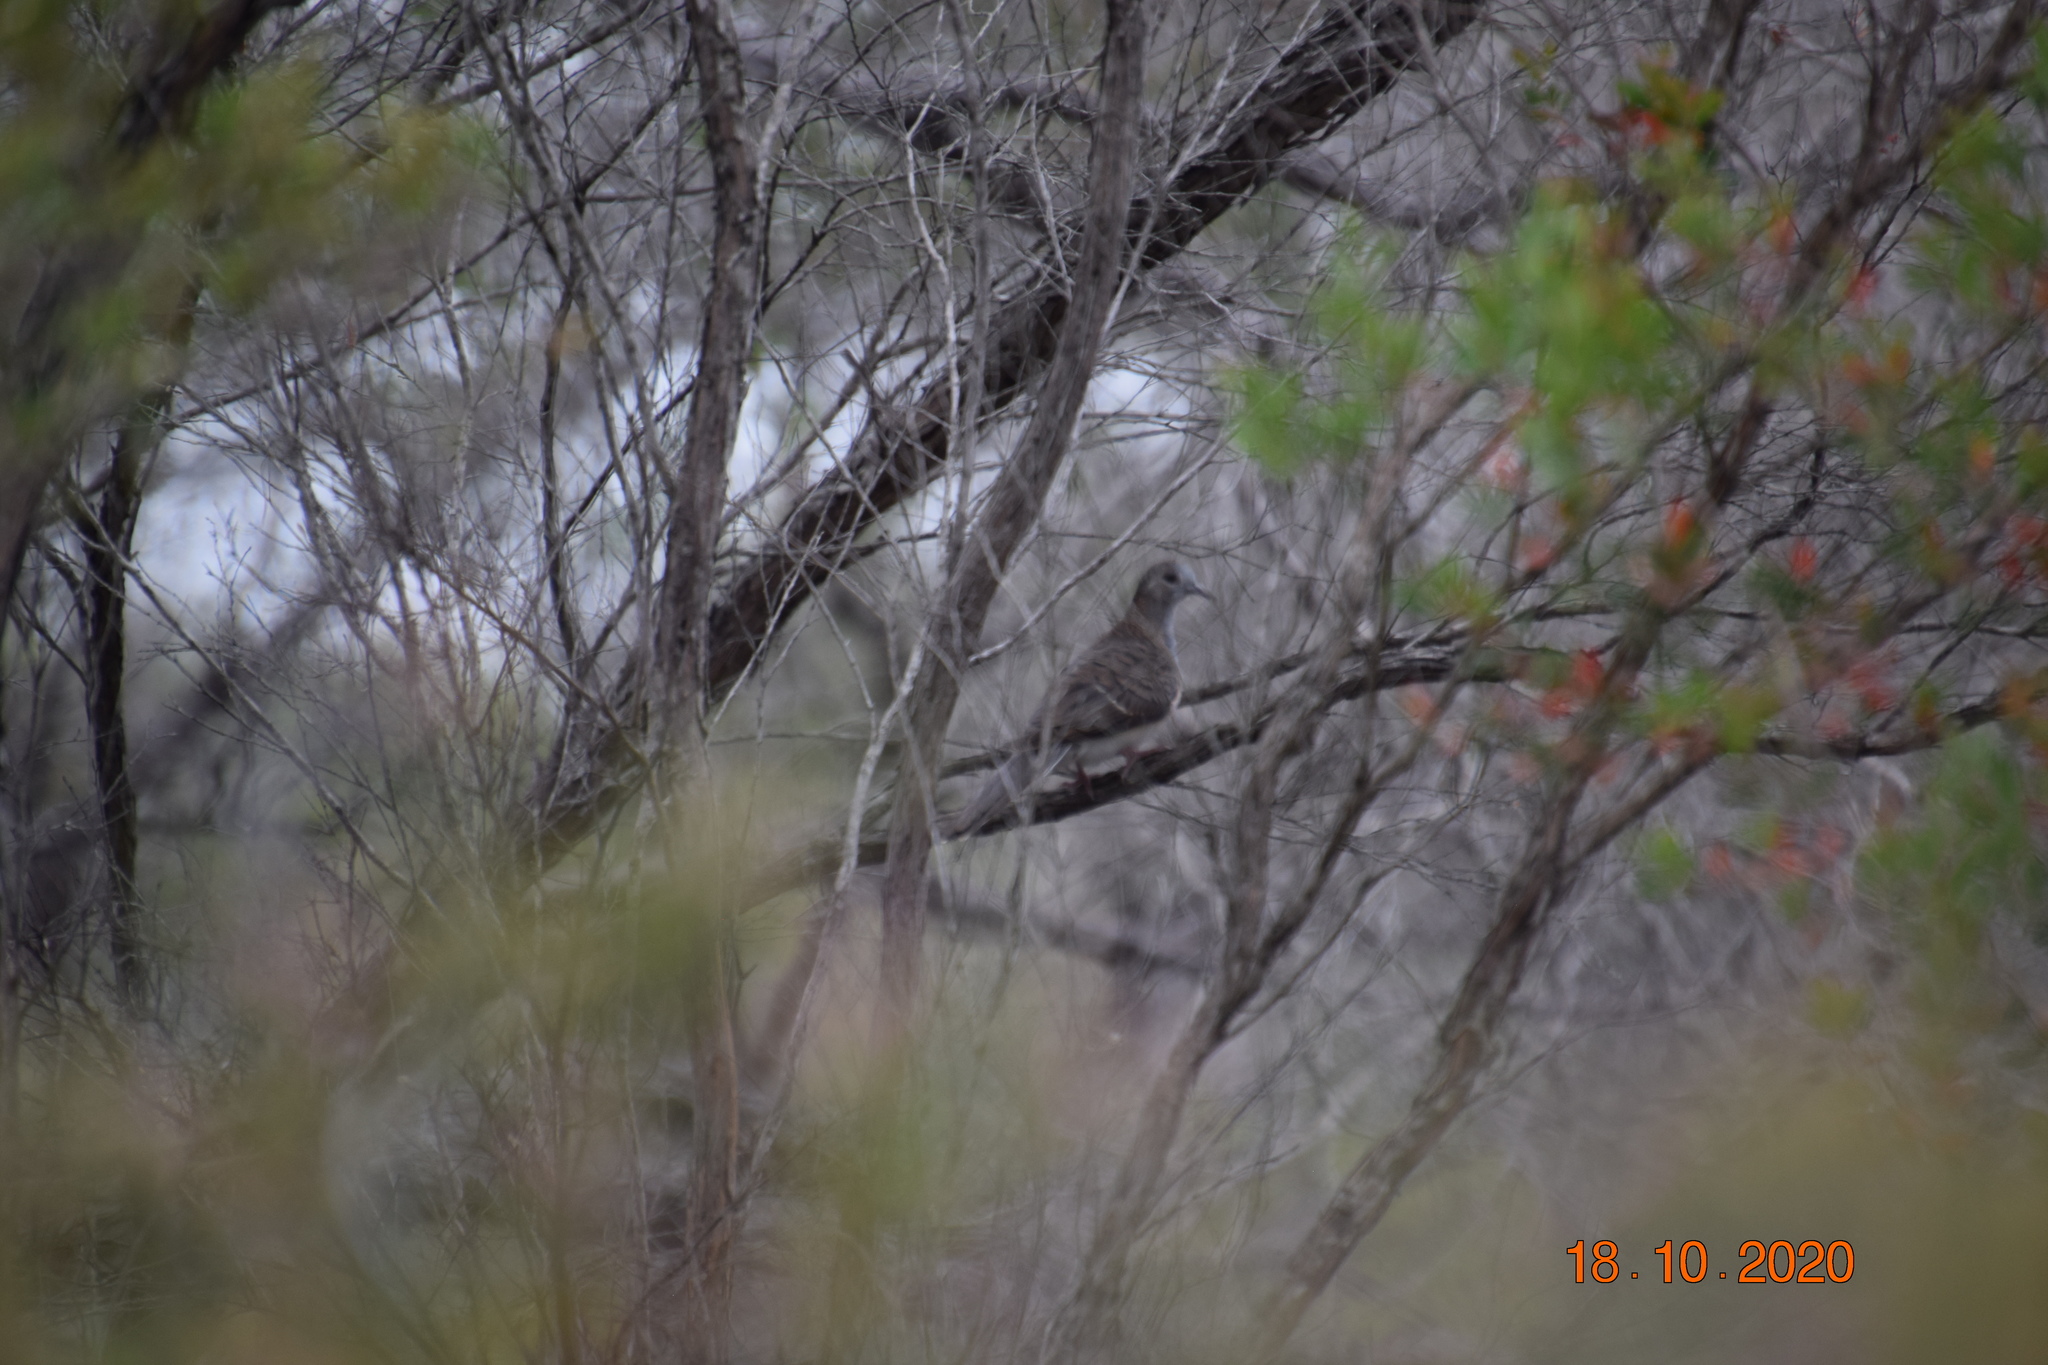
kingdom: Animalia
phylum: Chordata
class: Aves
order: Columbiformes
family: Columbidae
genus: Geopelia
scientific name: Geopelia humeralis
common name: Bar-shouldered dove
